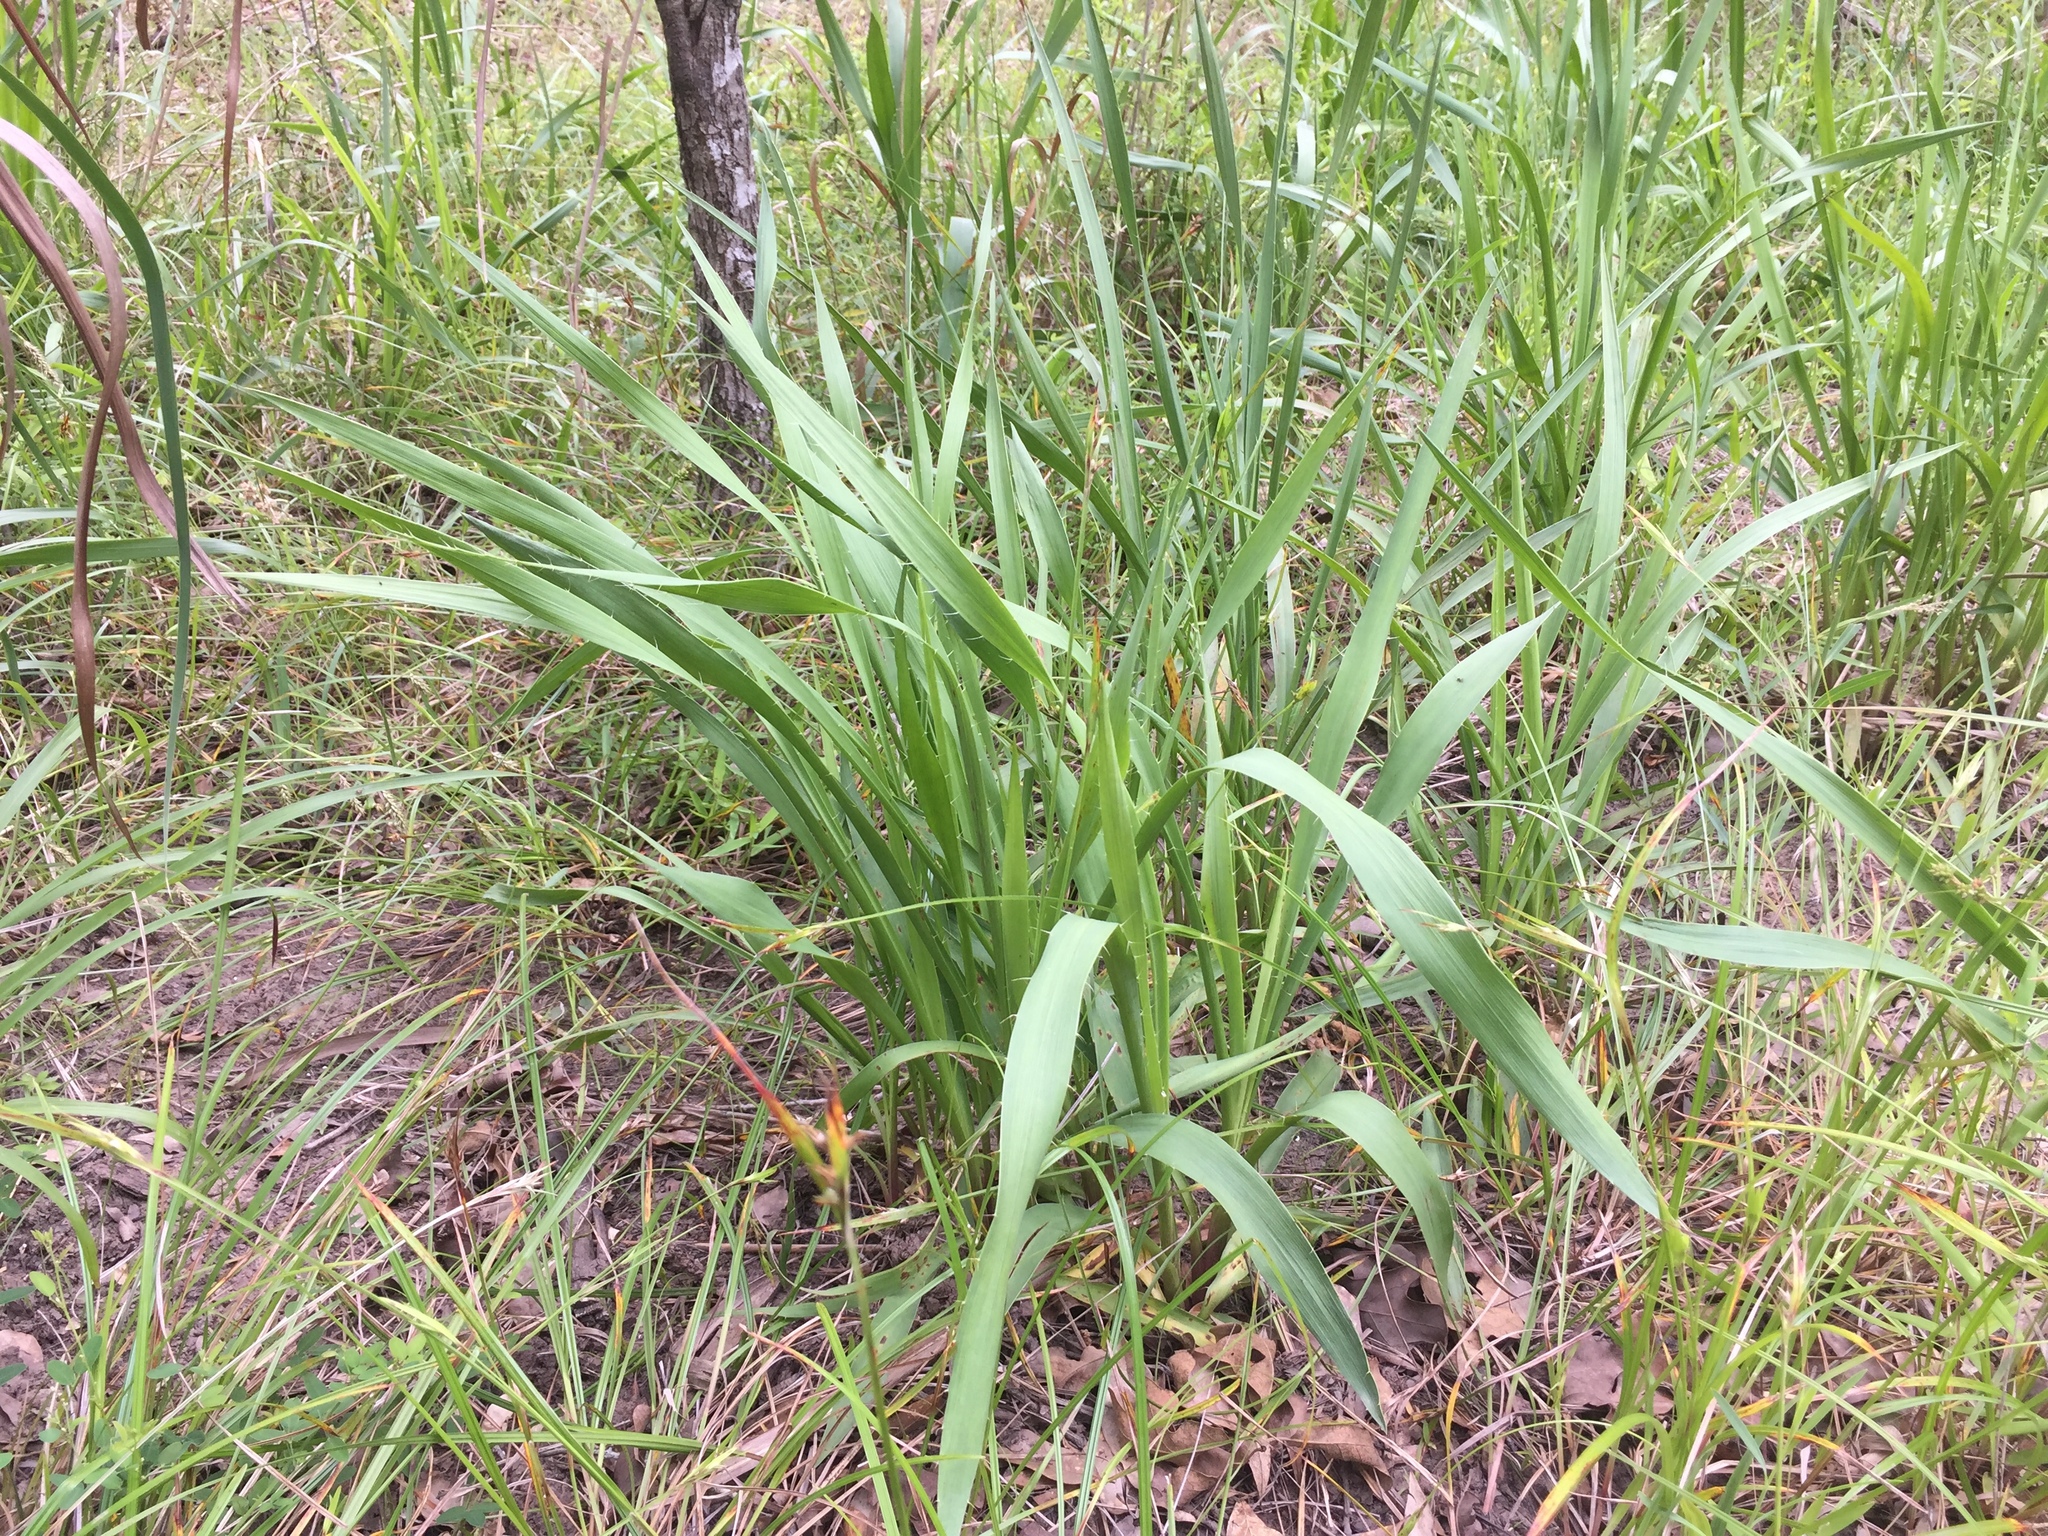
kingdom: Plantae
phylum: Tracheophyta
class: Magnoliopsida
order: Apiales
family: Apiaceae
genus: Eryngium
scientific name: Eryngium yuccifolium
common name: Button eryngo
